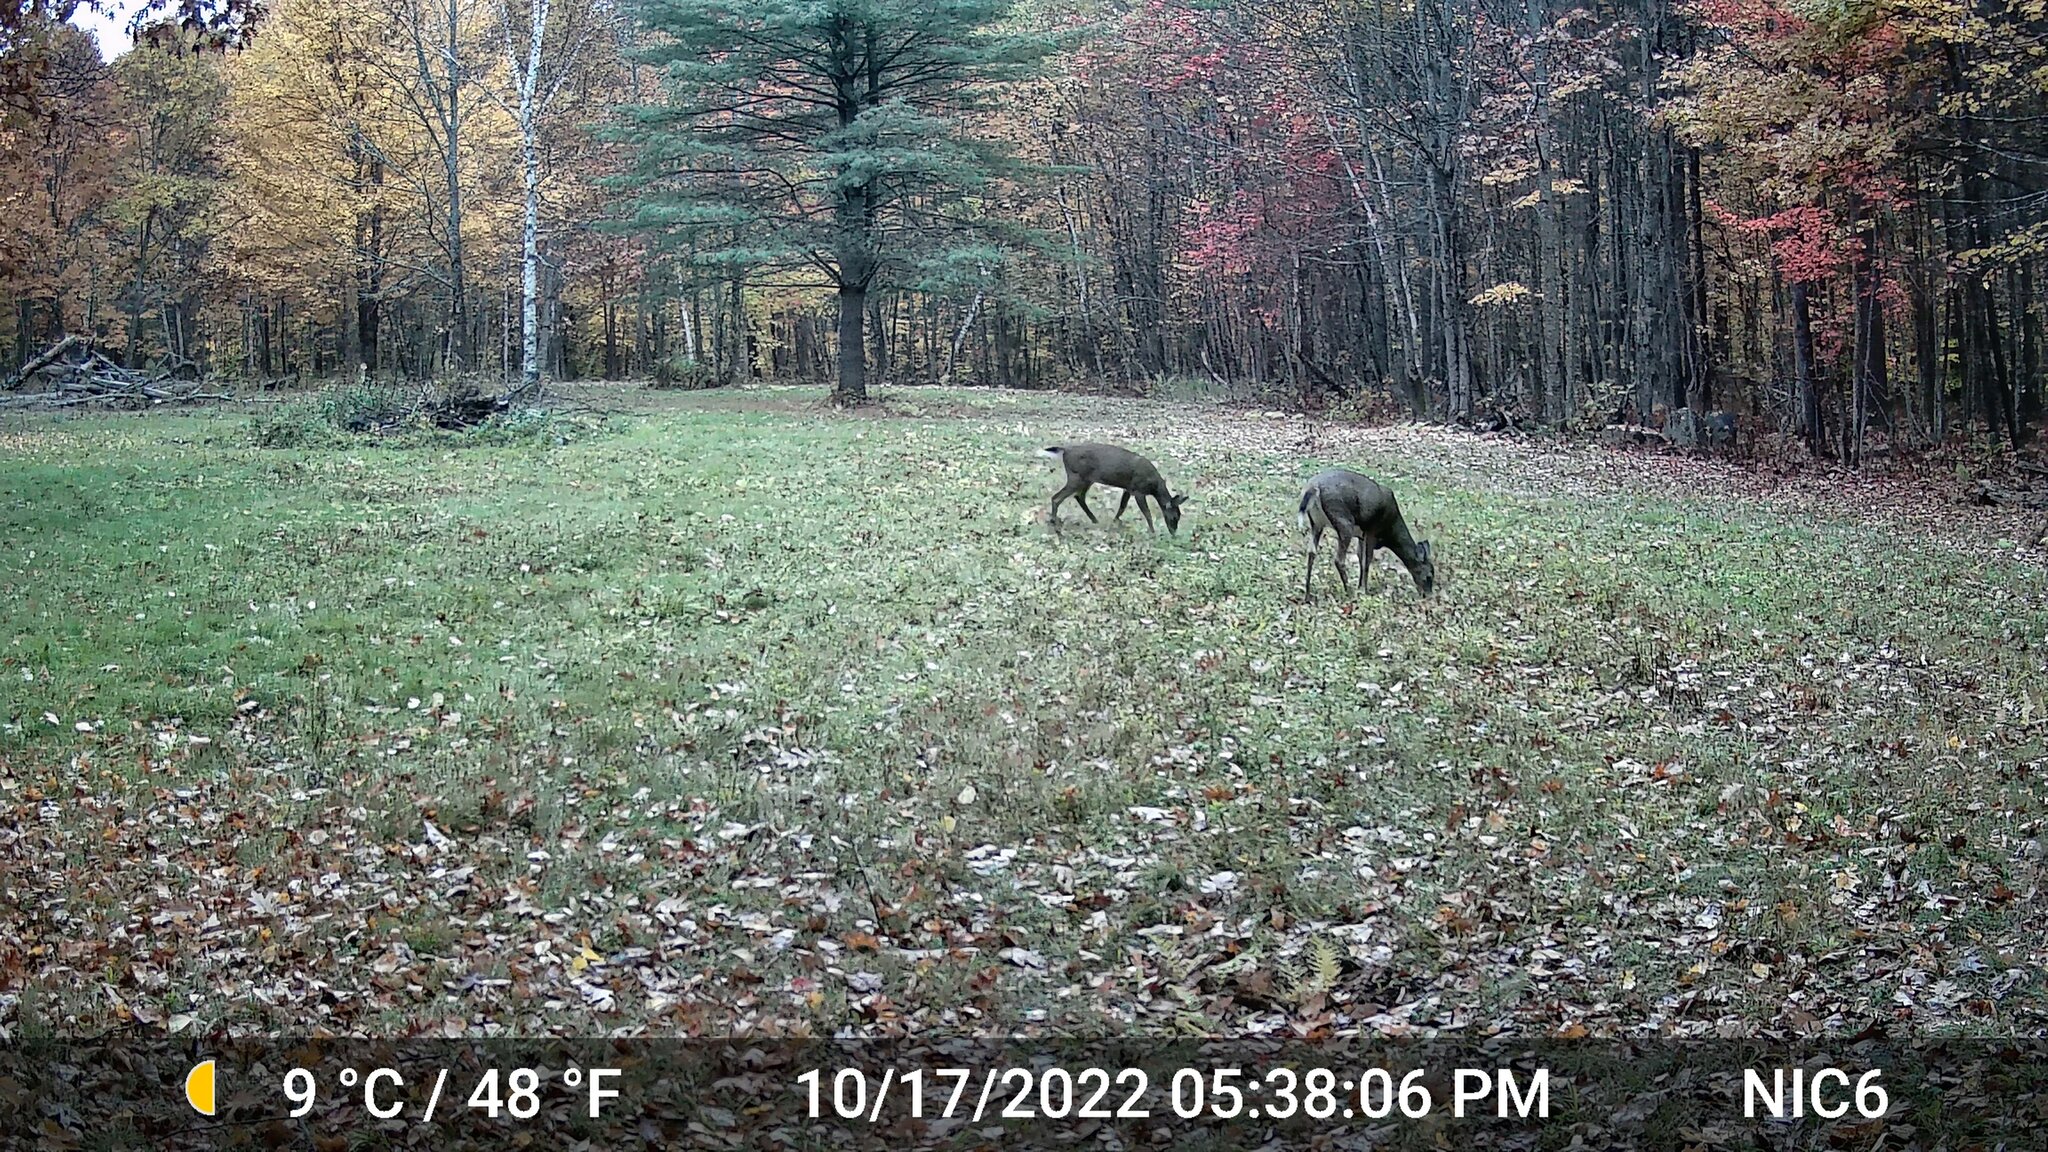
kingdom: Animalia
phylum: Chordata
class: Mammalia
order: Artiodactyla
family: Cervidae
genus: Odocoileus
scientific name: Odocoileus virginianus
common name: White-tailed deer
